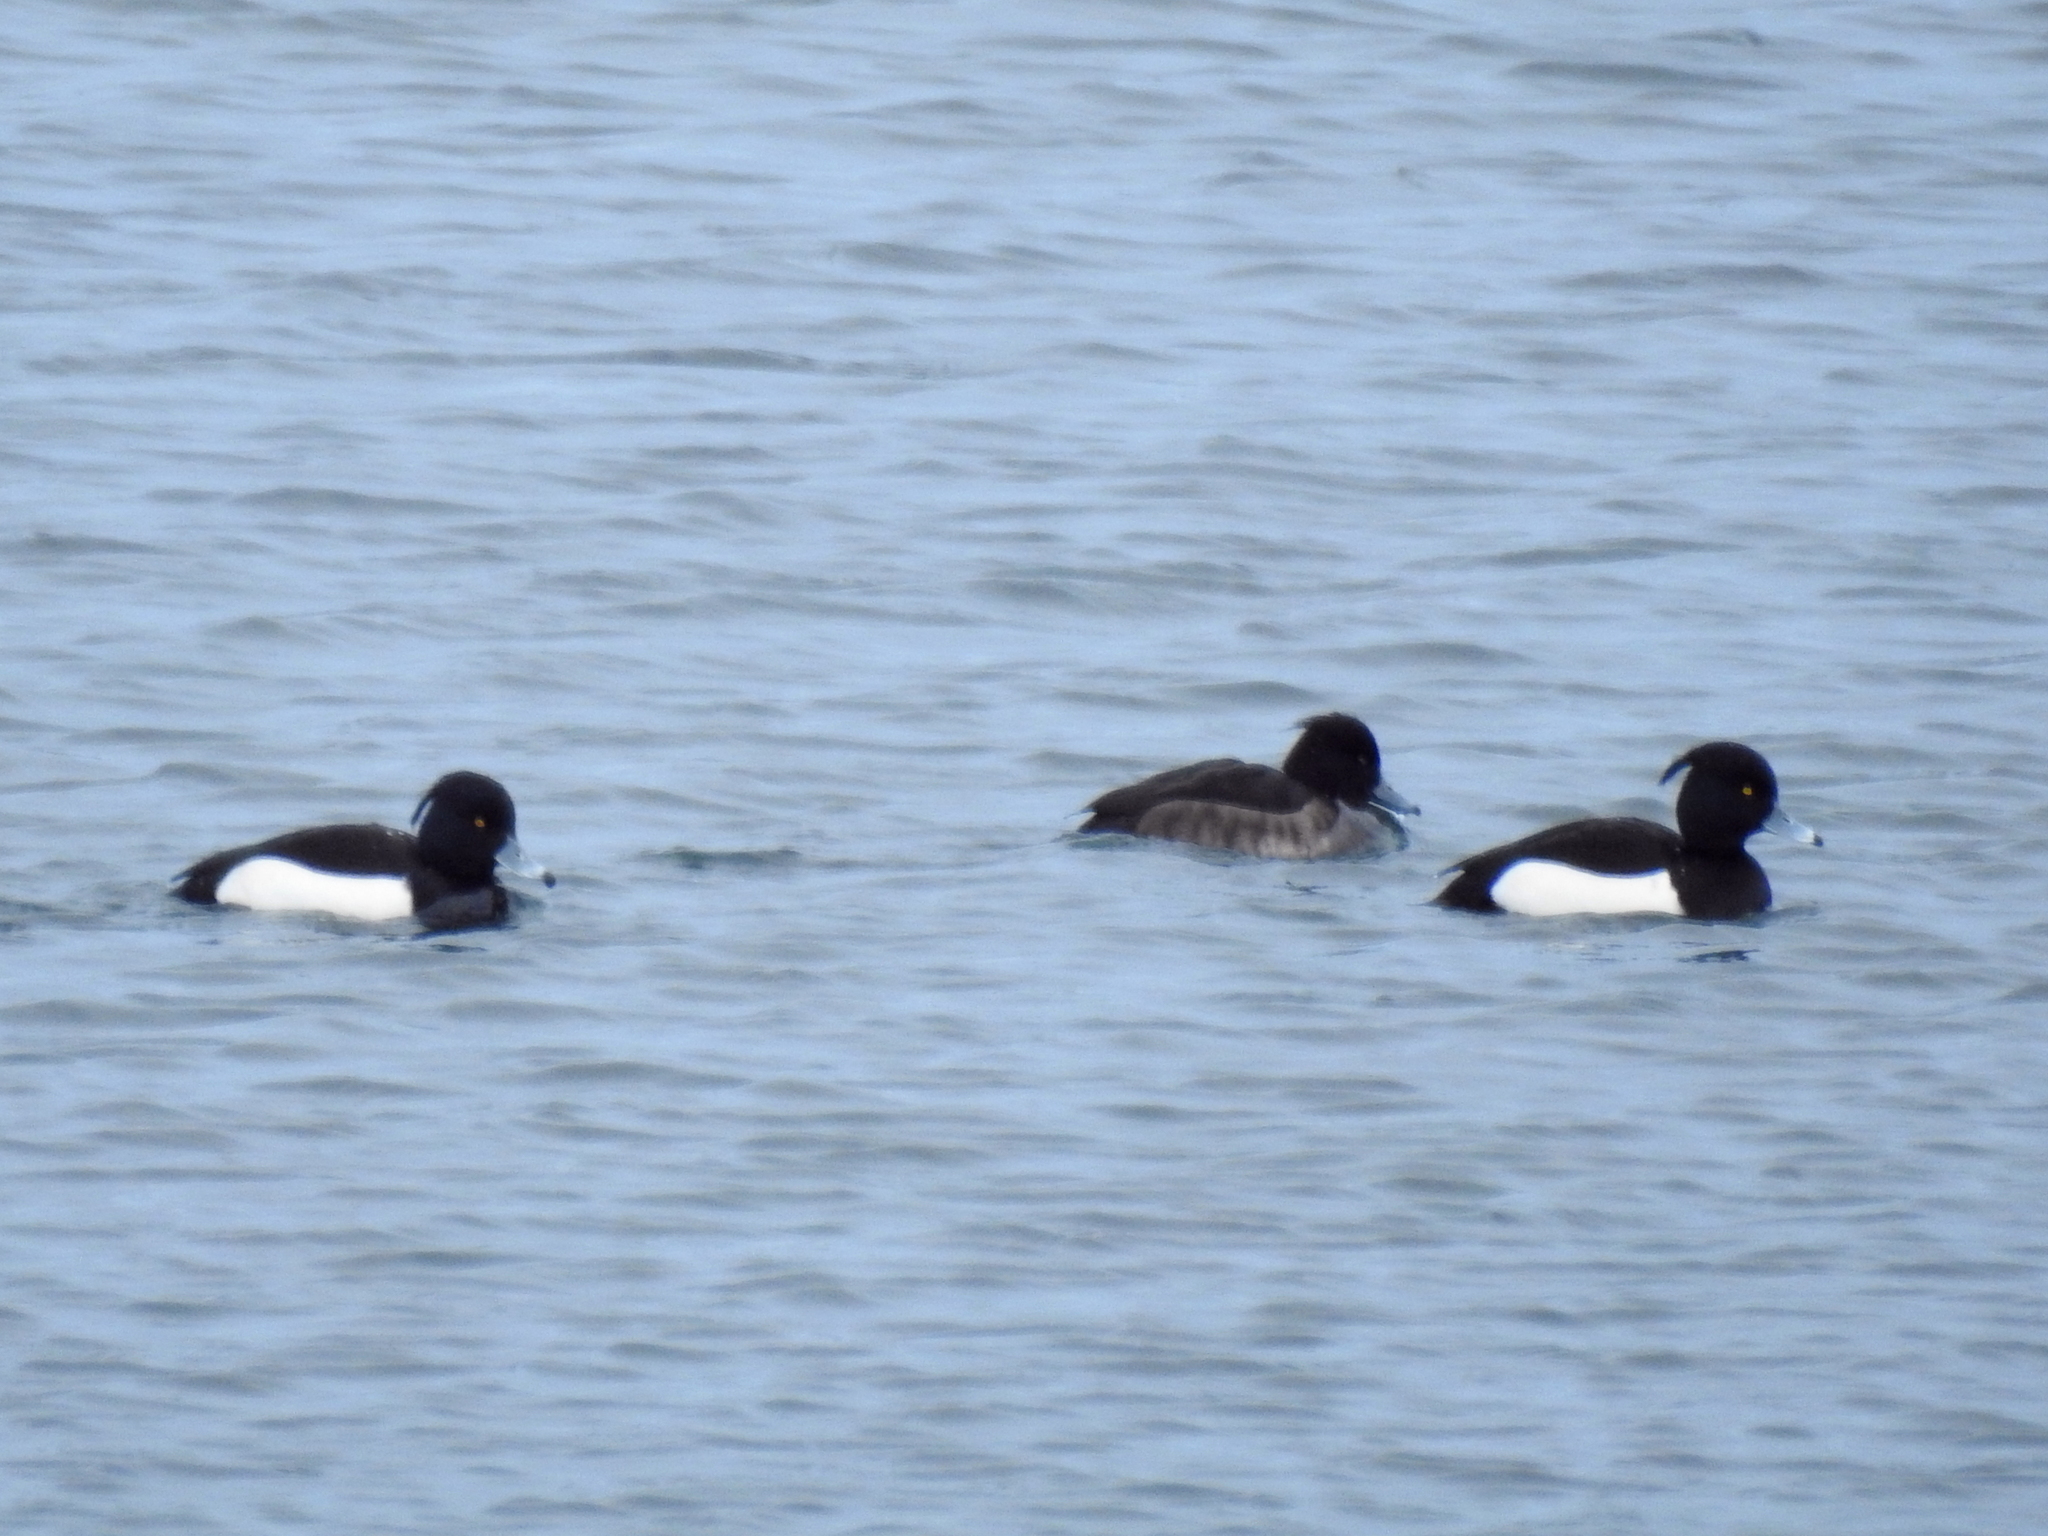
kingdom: Animalia
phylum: Chordata
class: Aves
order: Anseriformes
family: Anatidae
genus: Aythya
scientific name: Aythya fuligula
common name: Tufted duck
